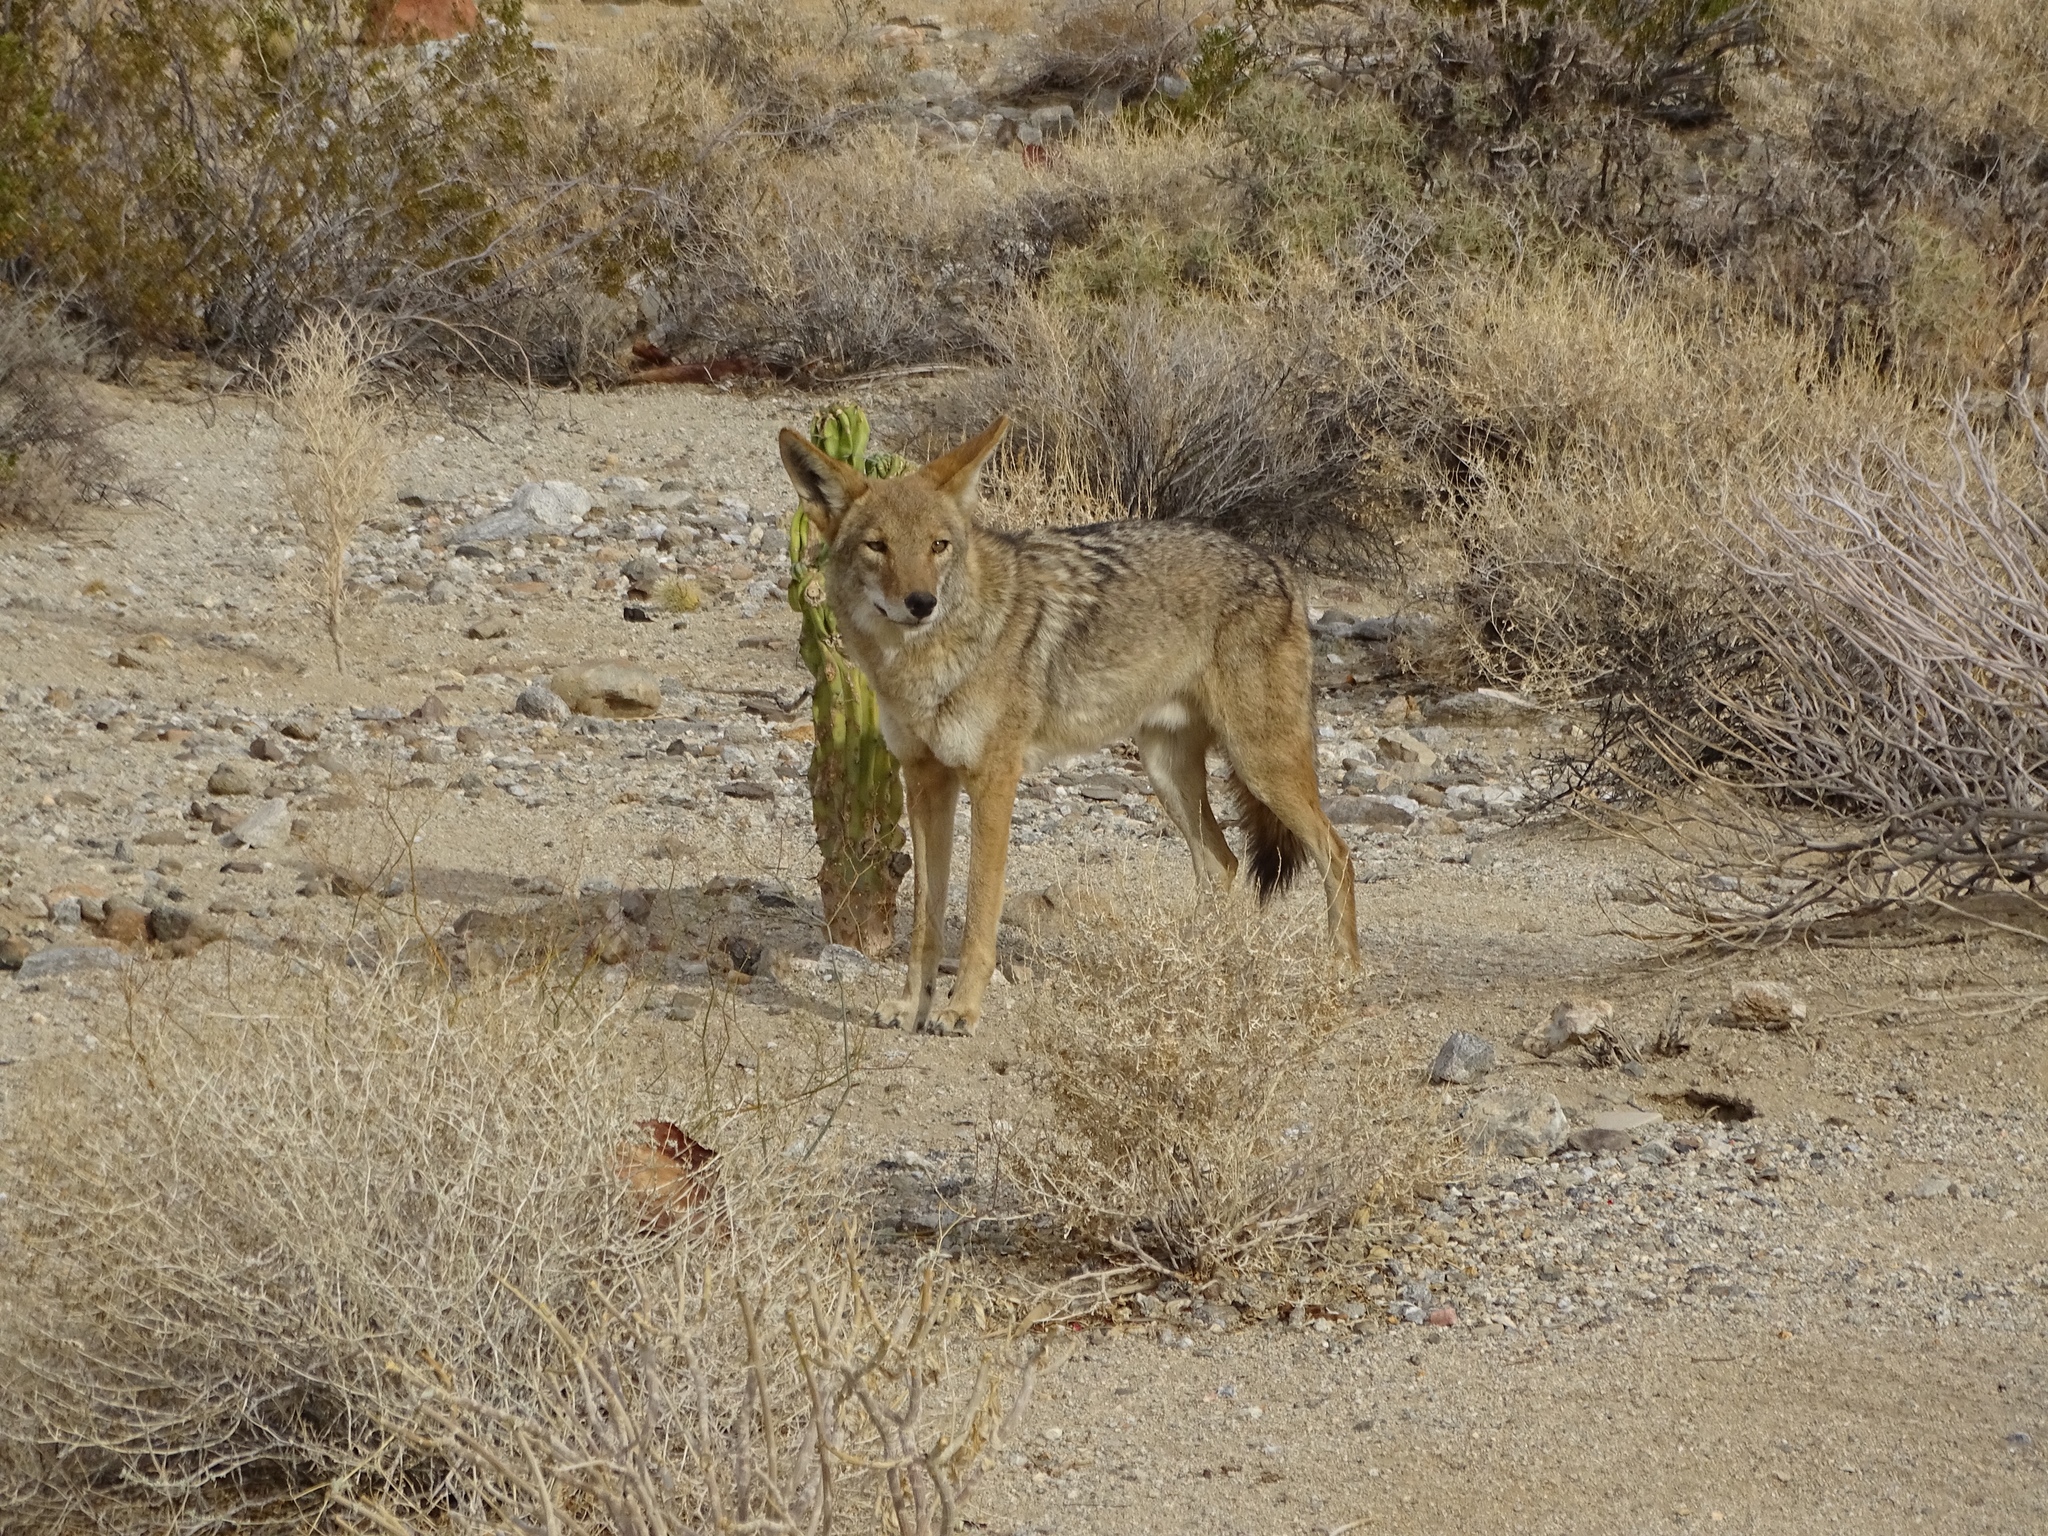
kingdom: Animalia
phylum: Chordata
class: Mammalia
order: Carnivora
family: Canidae
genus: Canis
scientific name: Canis latrans
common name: Coyote
